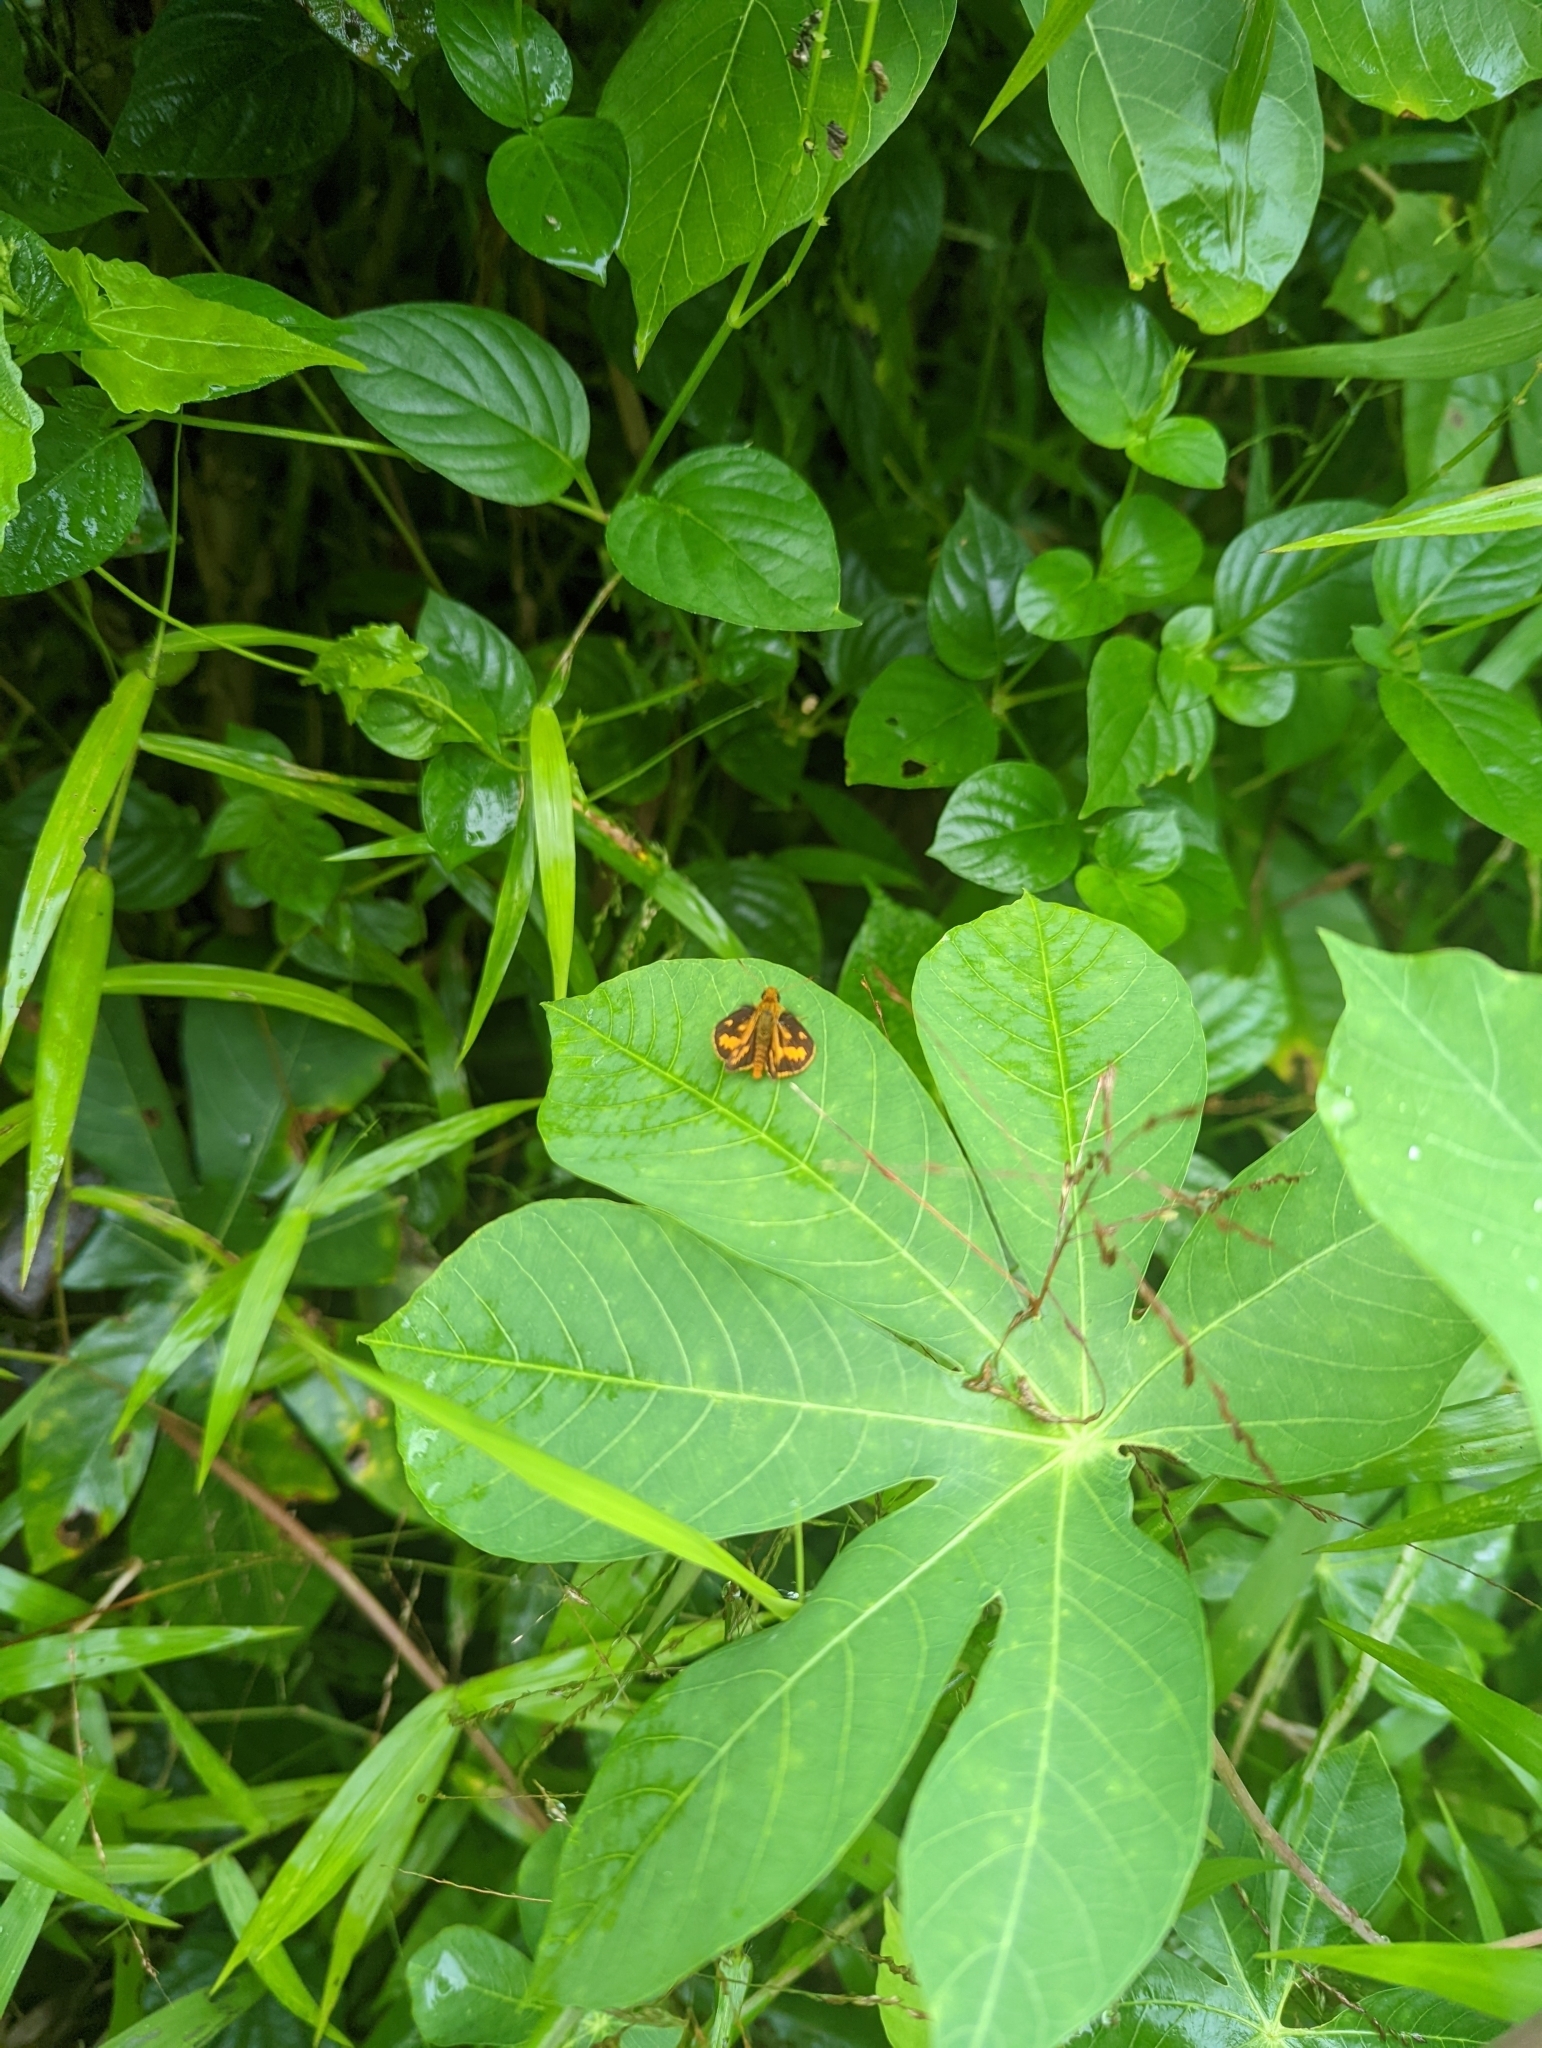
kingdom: Plantae
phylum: Tracheophyta
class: Magnoliopsida
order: Malpighiales
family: Euphorbiaceae
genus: Manihot
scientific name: Manihot carthagenensis
